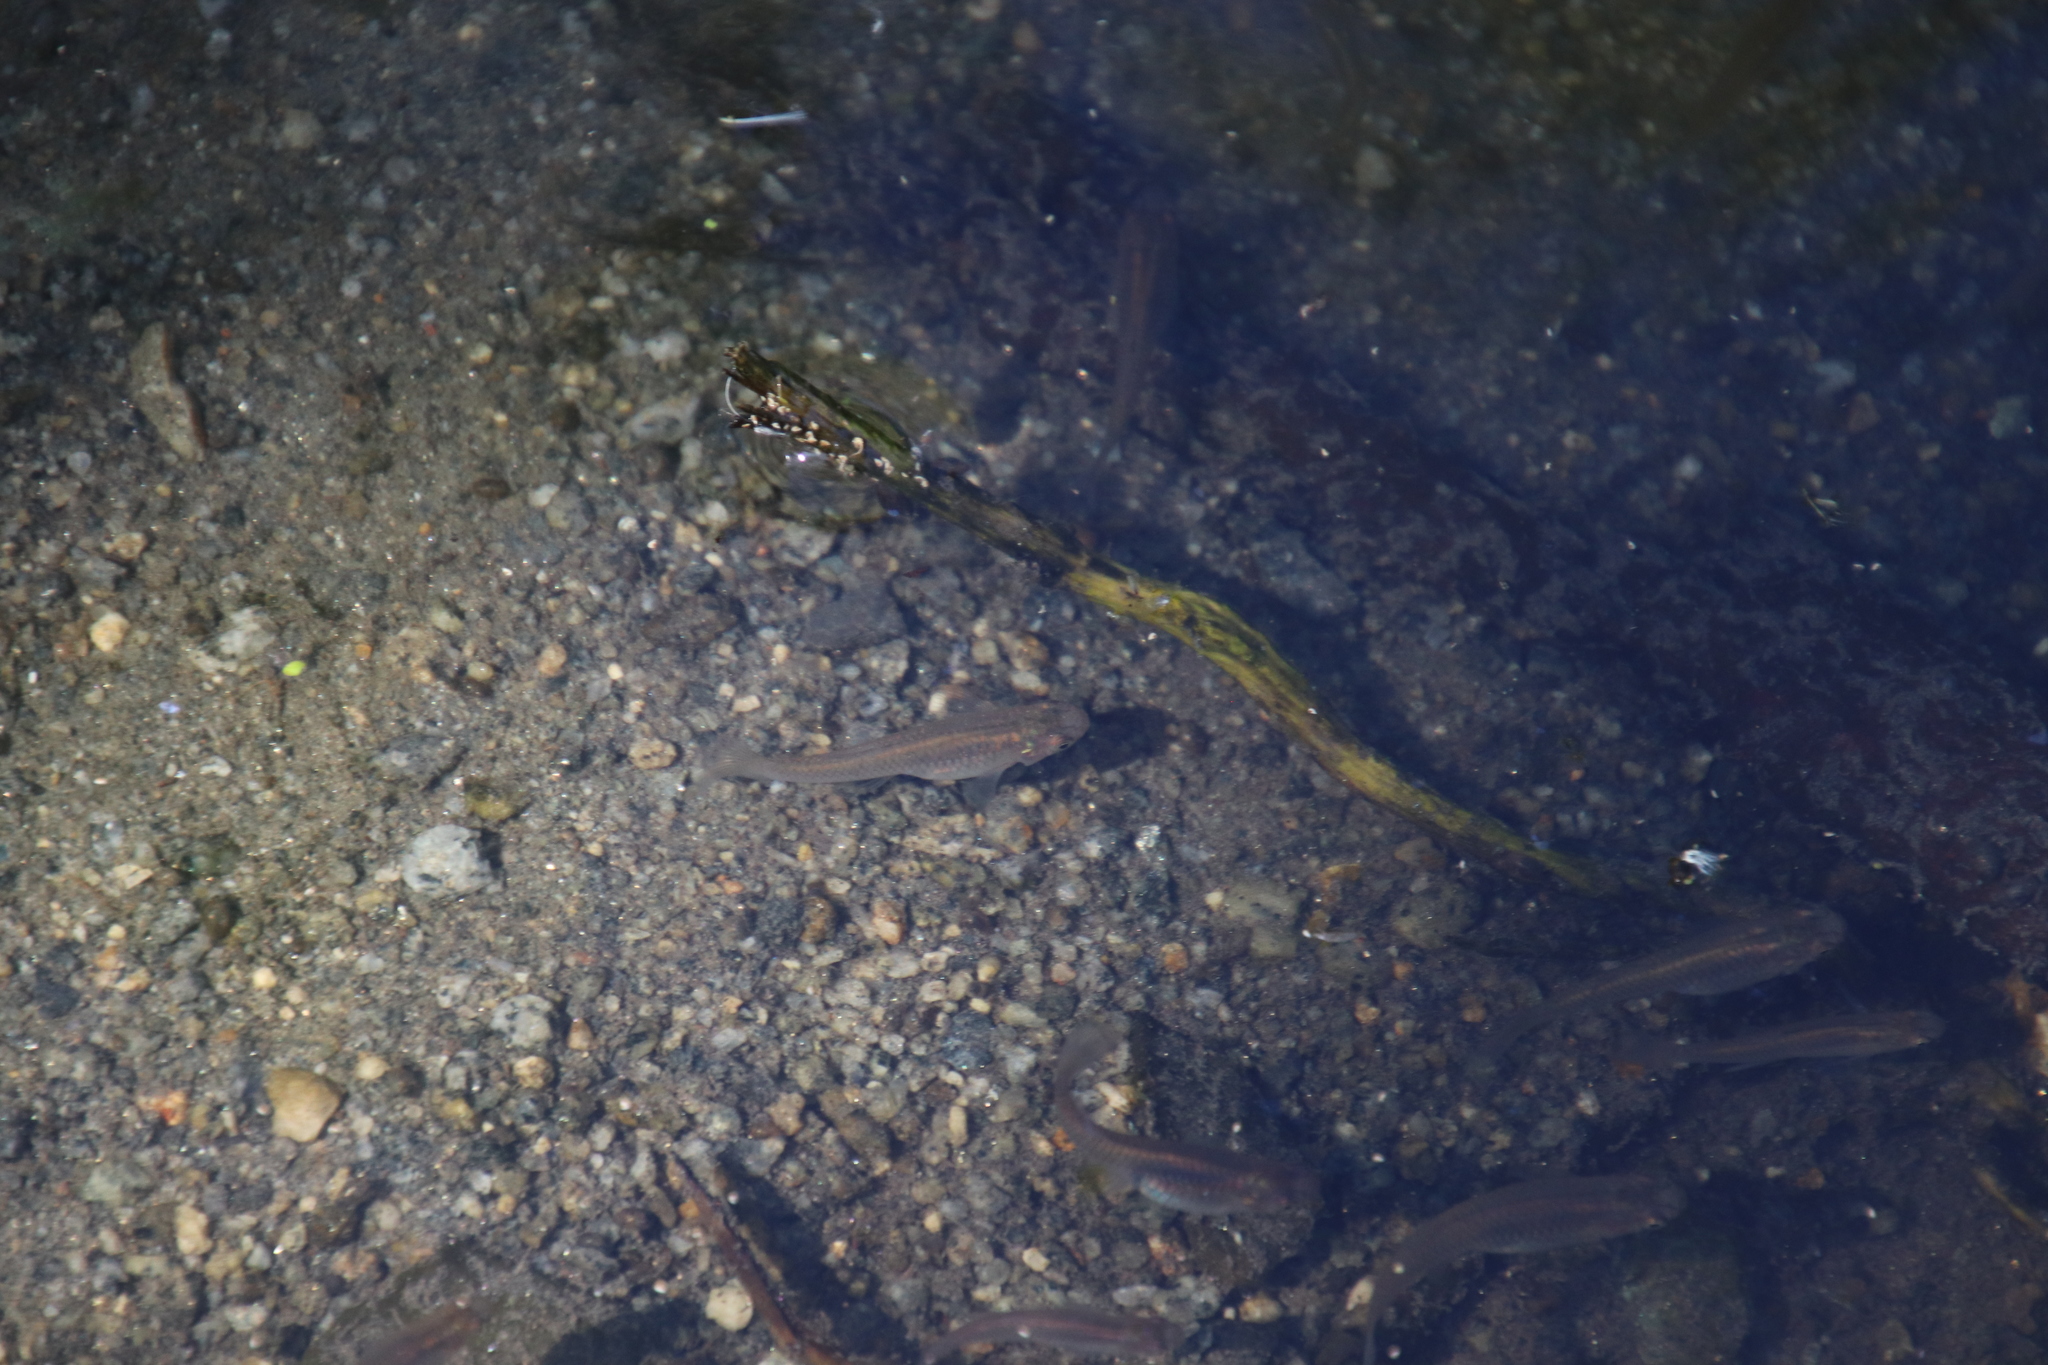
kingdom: Animalia
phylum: Chordata
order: Cyprinodontiformes
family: Poeciliidae
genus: Gambusia
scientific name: Gambusia affinis
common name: Mosquitofish
